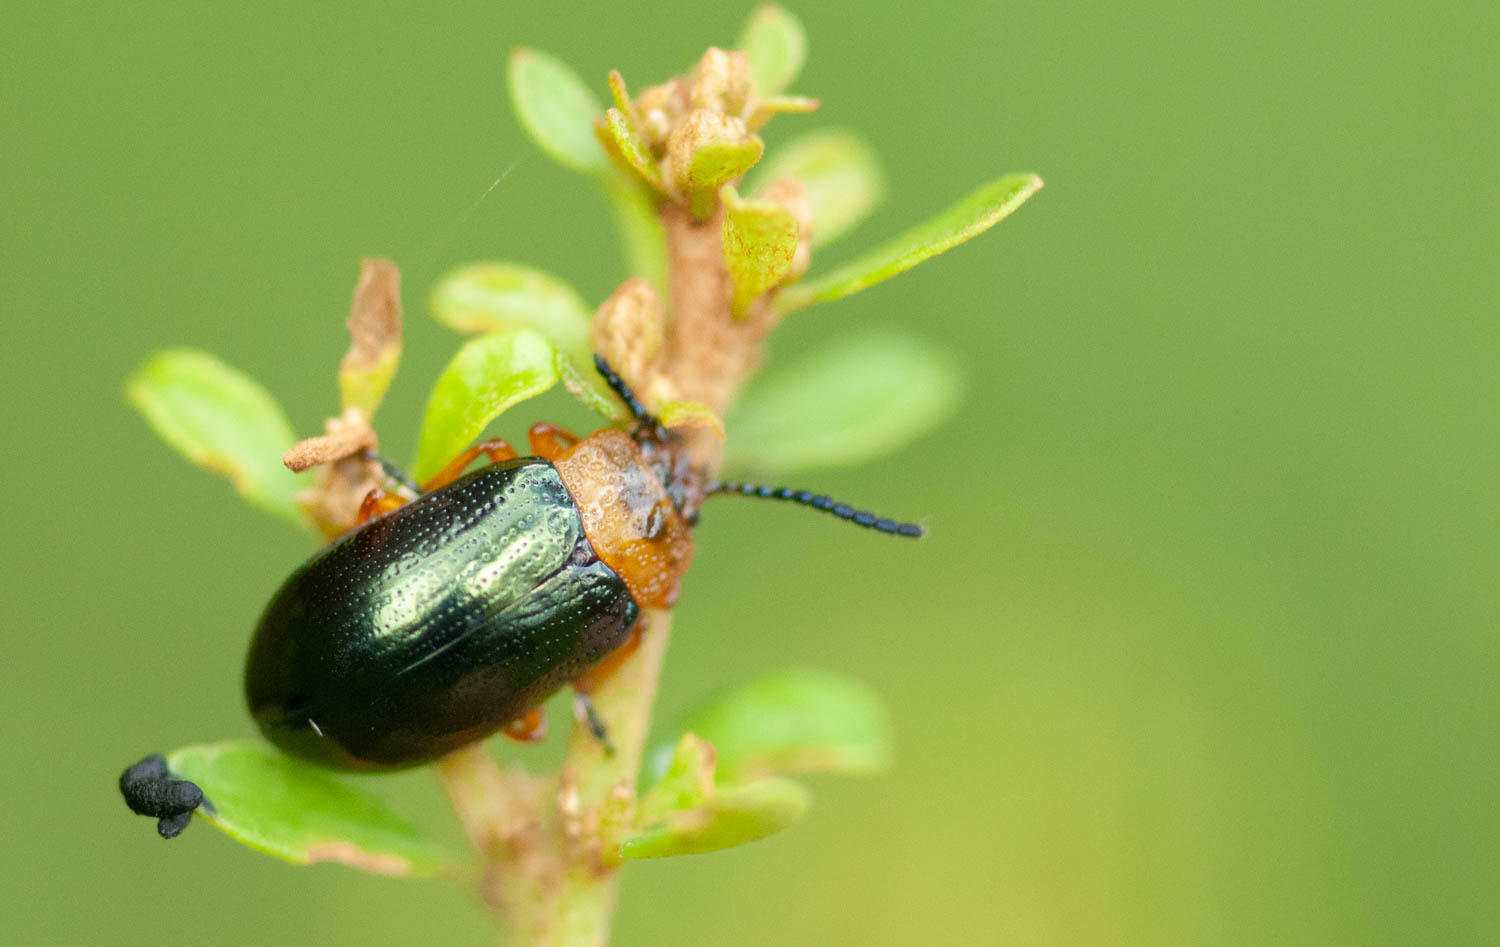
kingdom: Animalia
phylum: Arthropoda
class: Insecta
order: Coleoptera
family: Chrysomelidae
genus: Lamprolina
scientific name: Lamprolina
